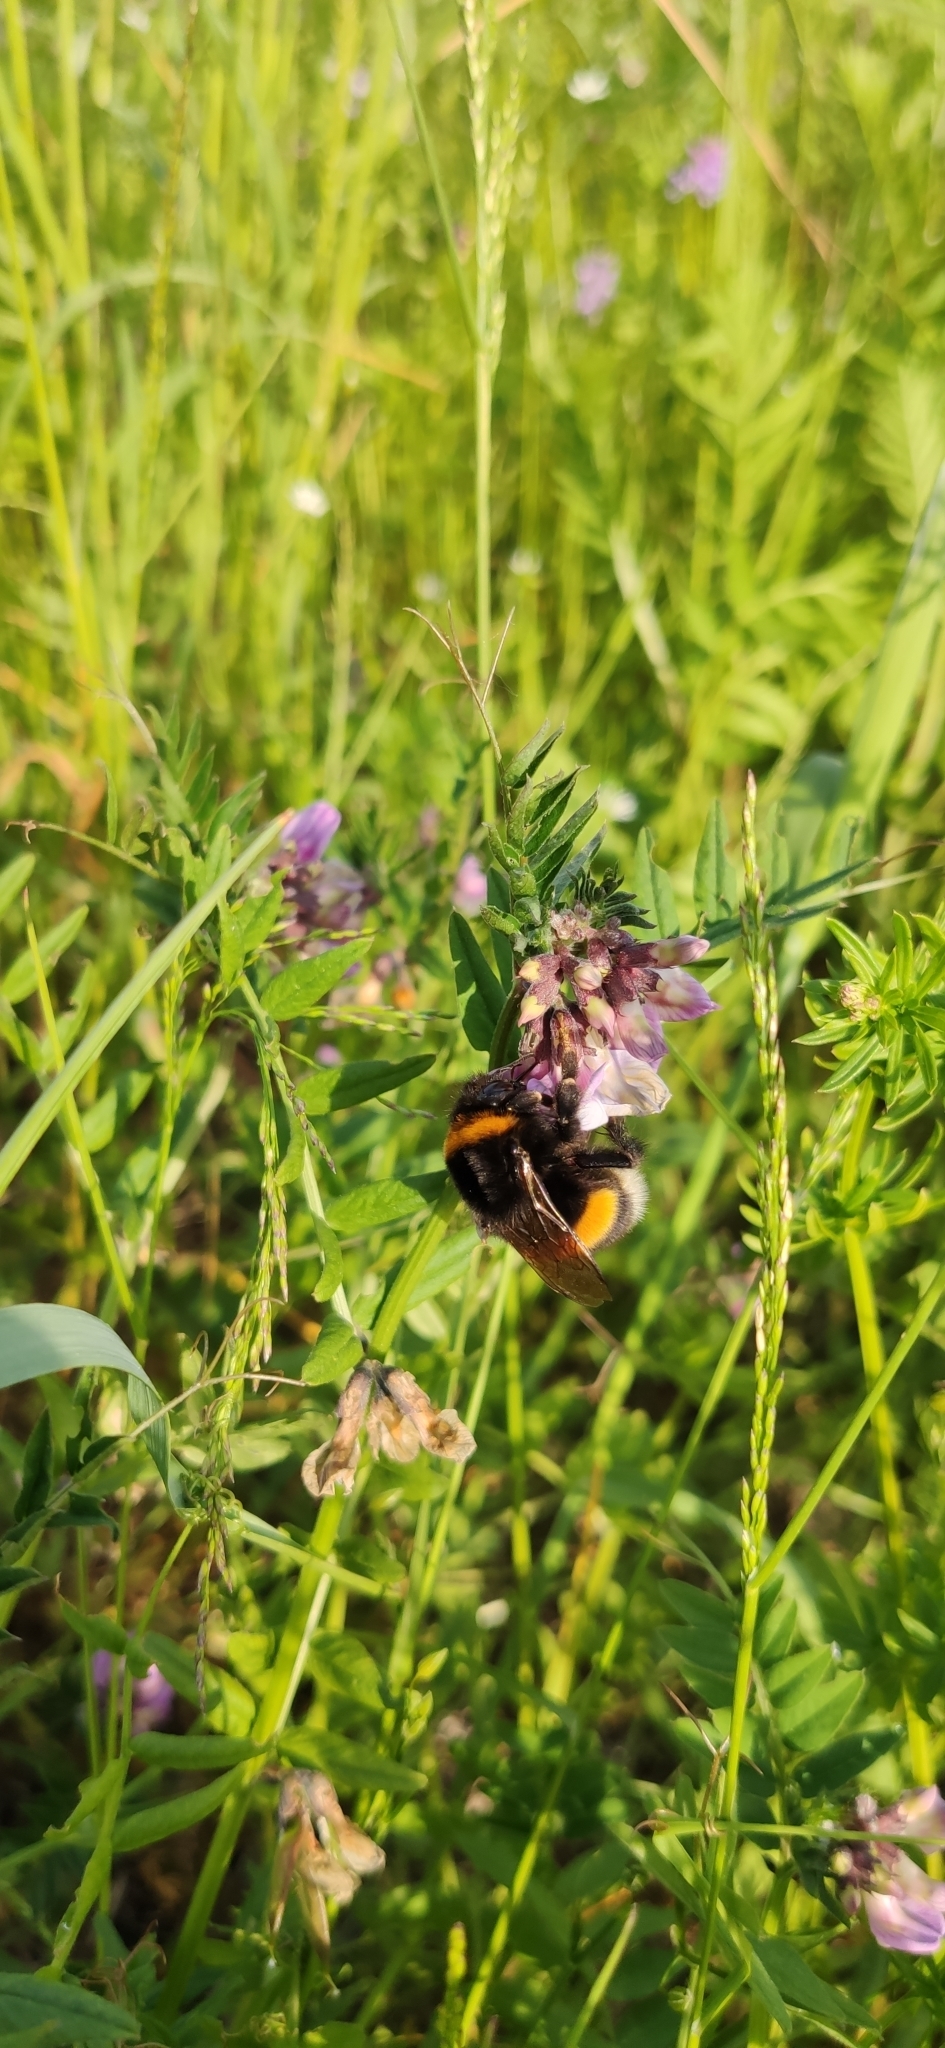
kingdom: Animalia
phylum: Arthropoda
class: Insecta
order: Hymenoptera
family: Apidae
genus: Bombus
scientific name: Bombus
